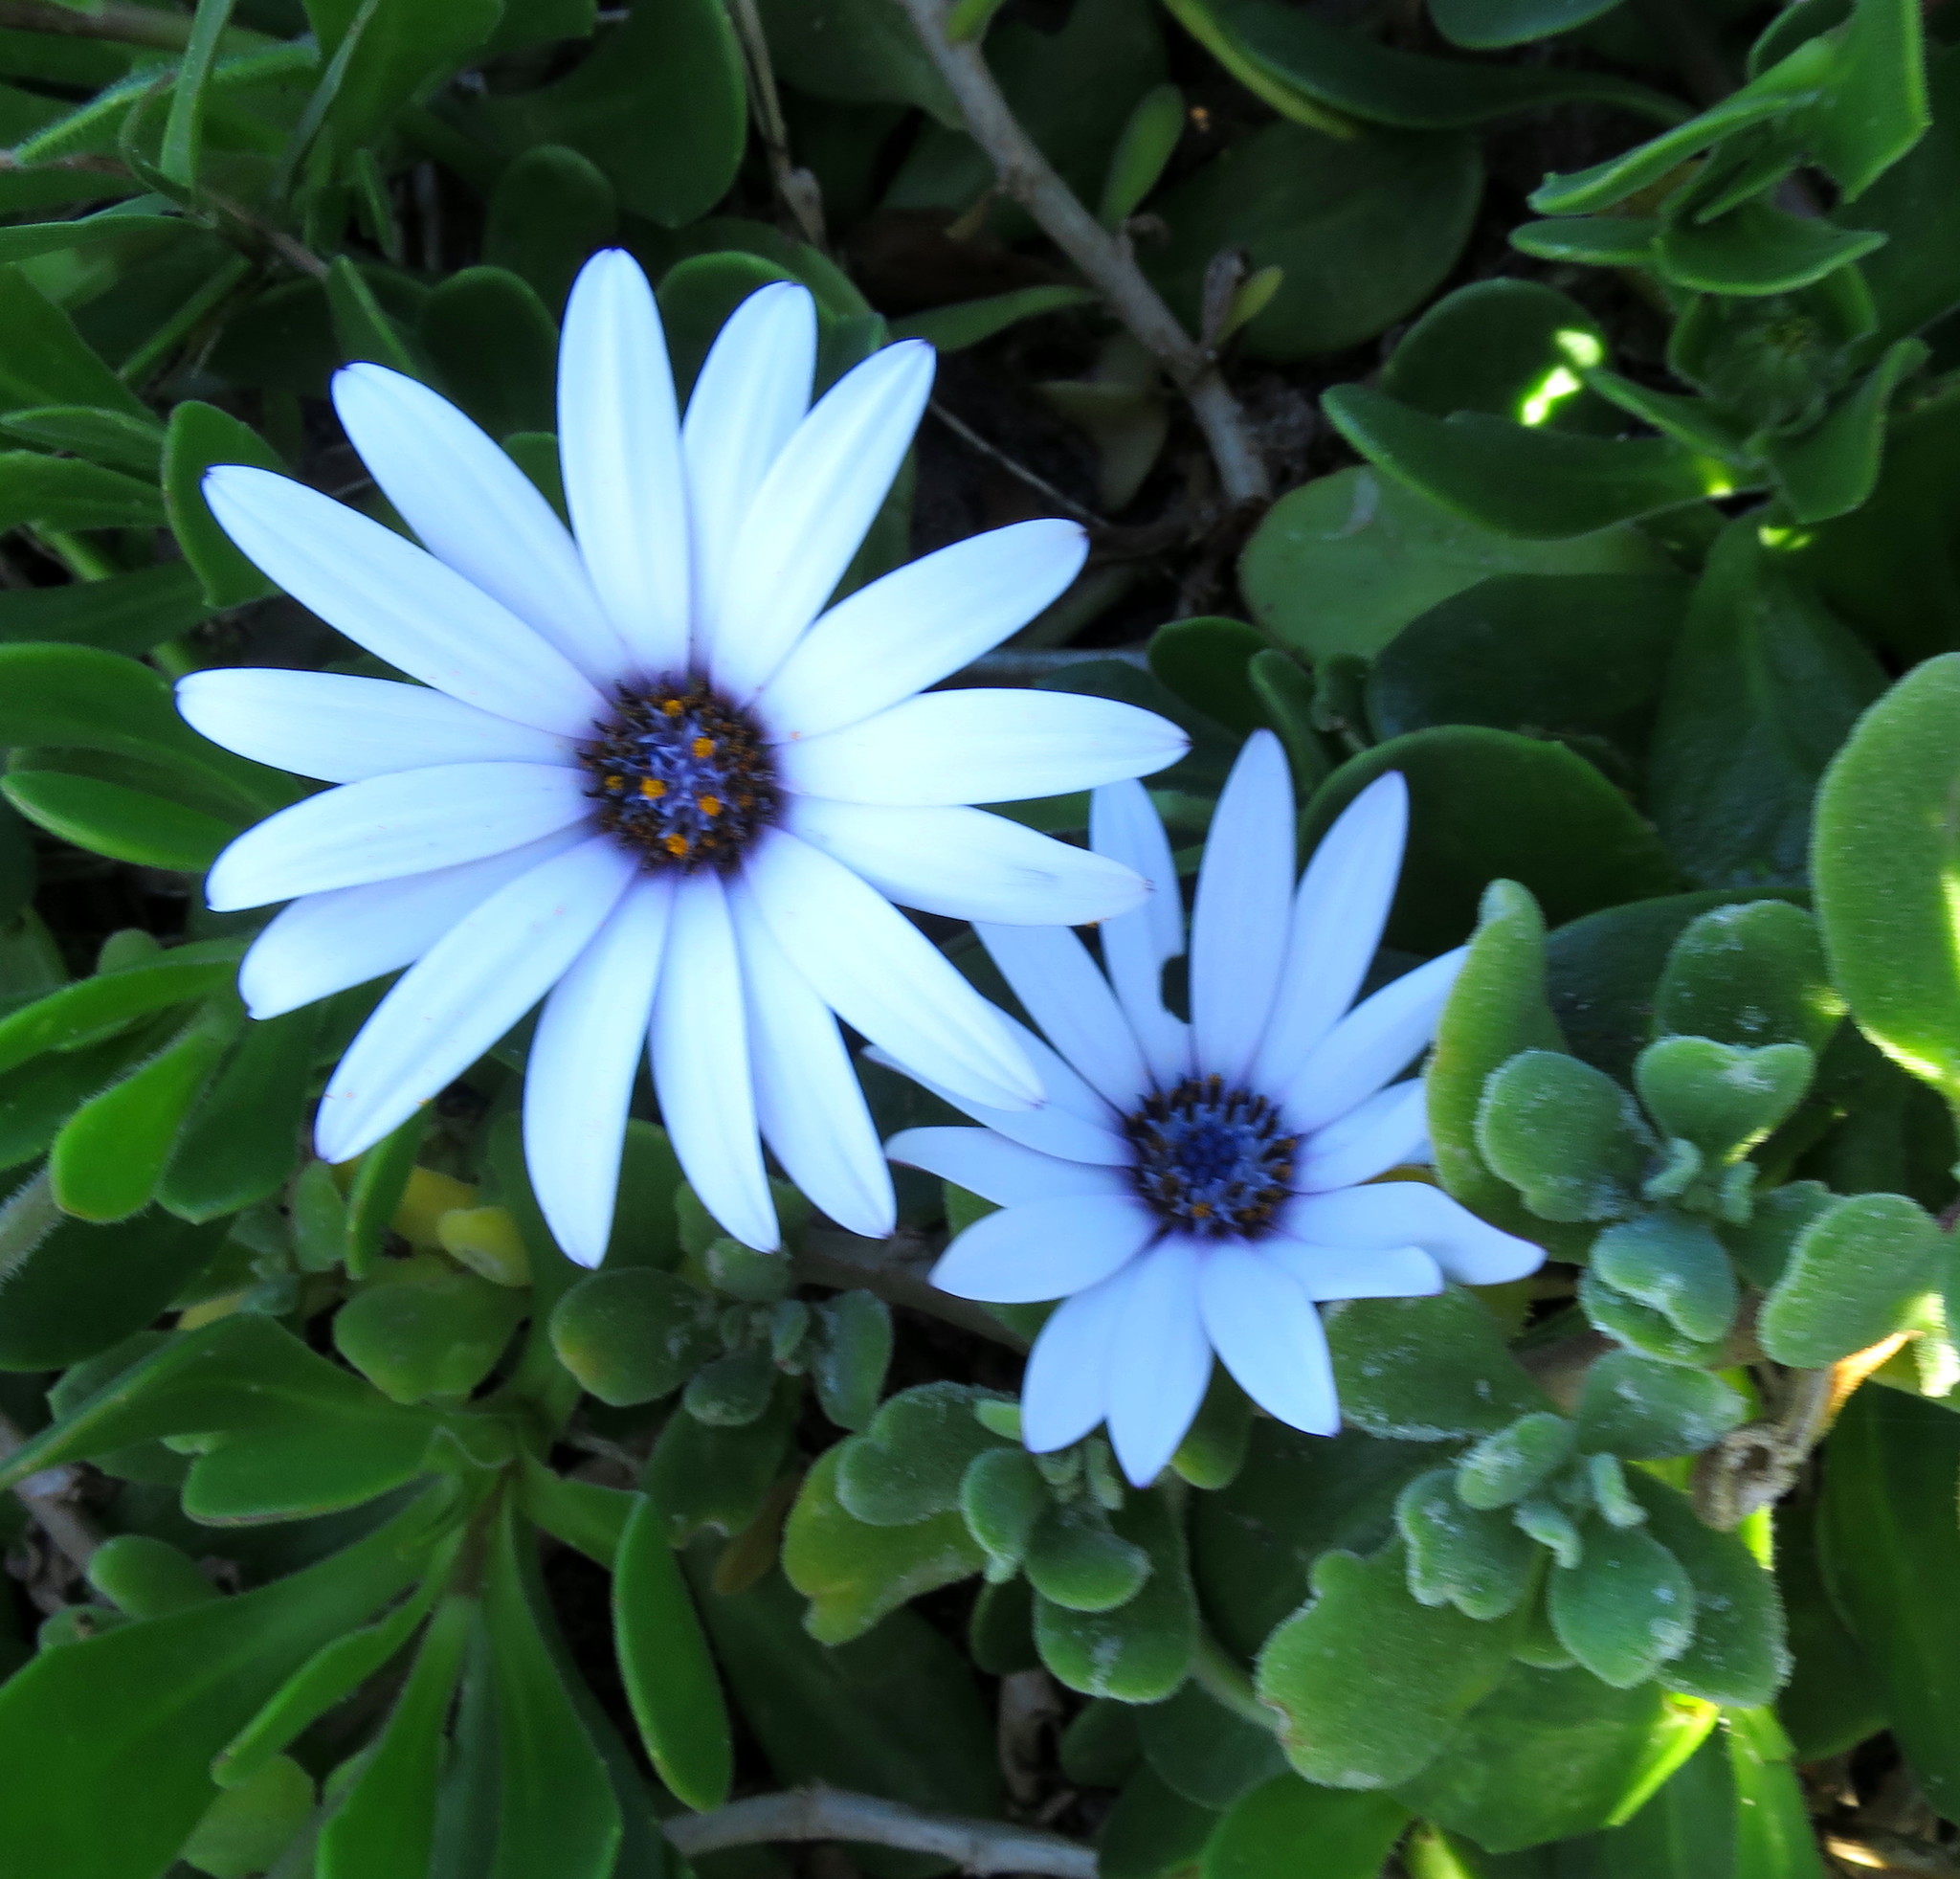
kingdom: Plantae
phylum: Tracheophyta
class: Magnoliopsida
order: Asterales
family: Asteraceae
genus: Dimorphotheca
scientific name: Dimorphotheca fruticosa
